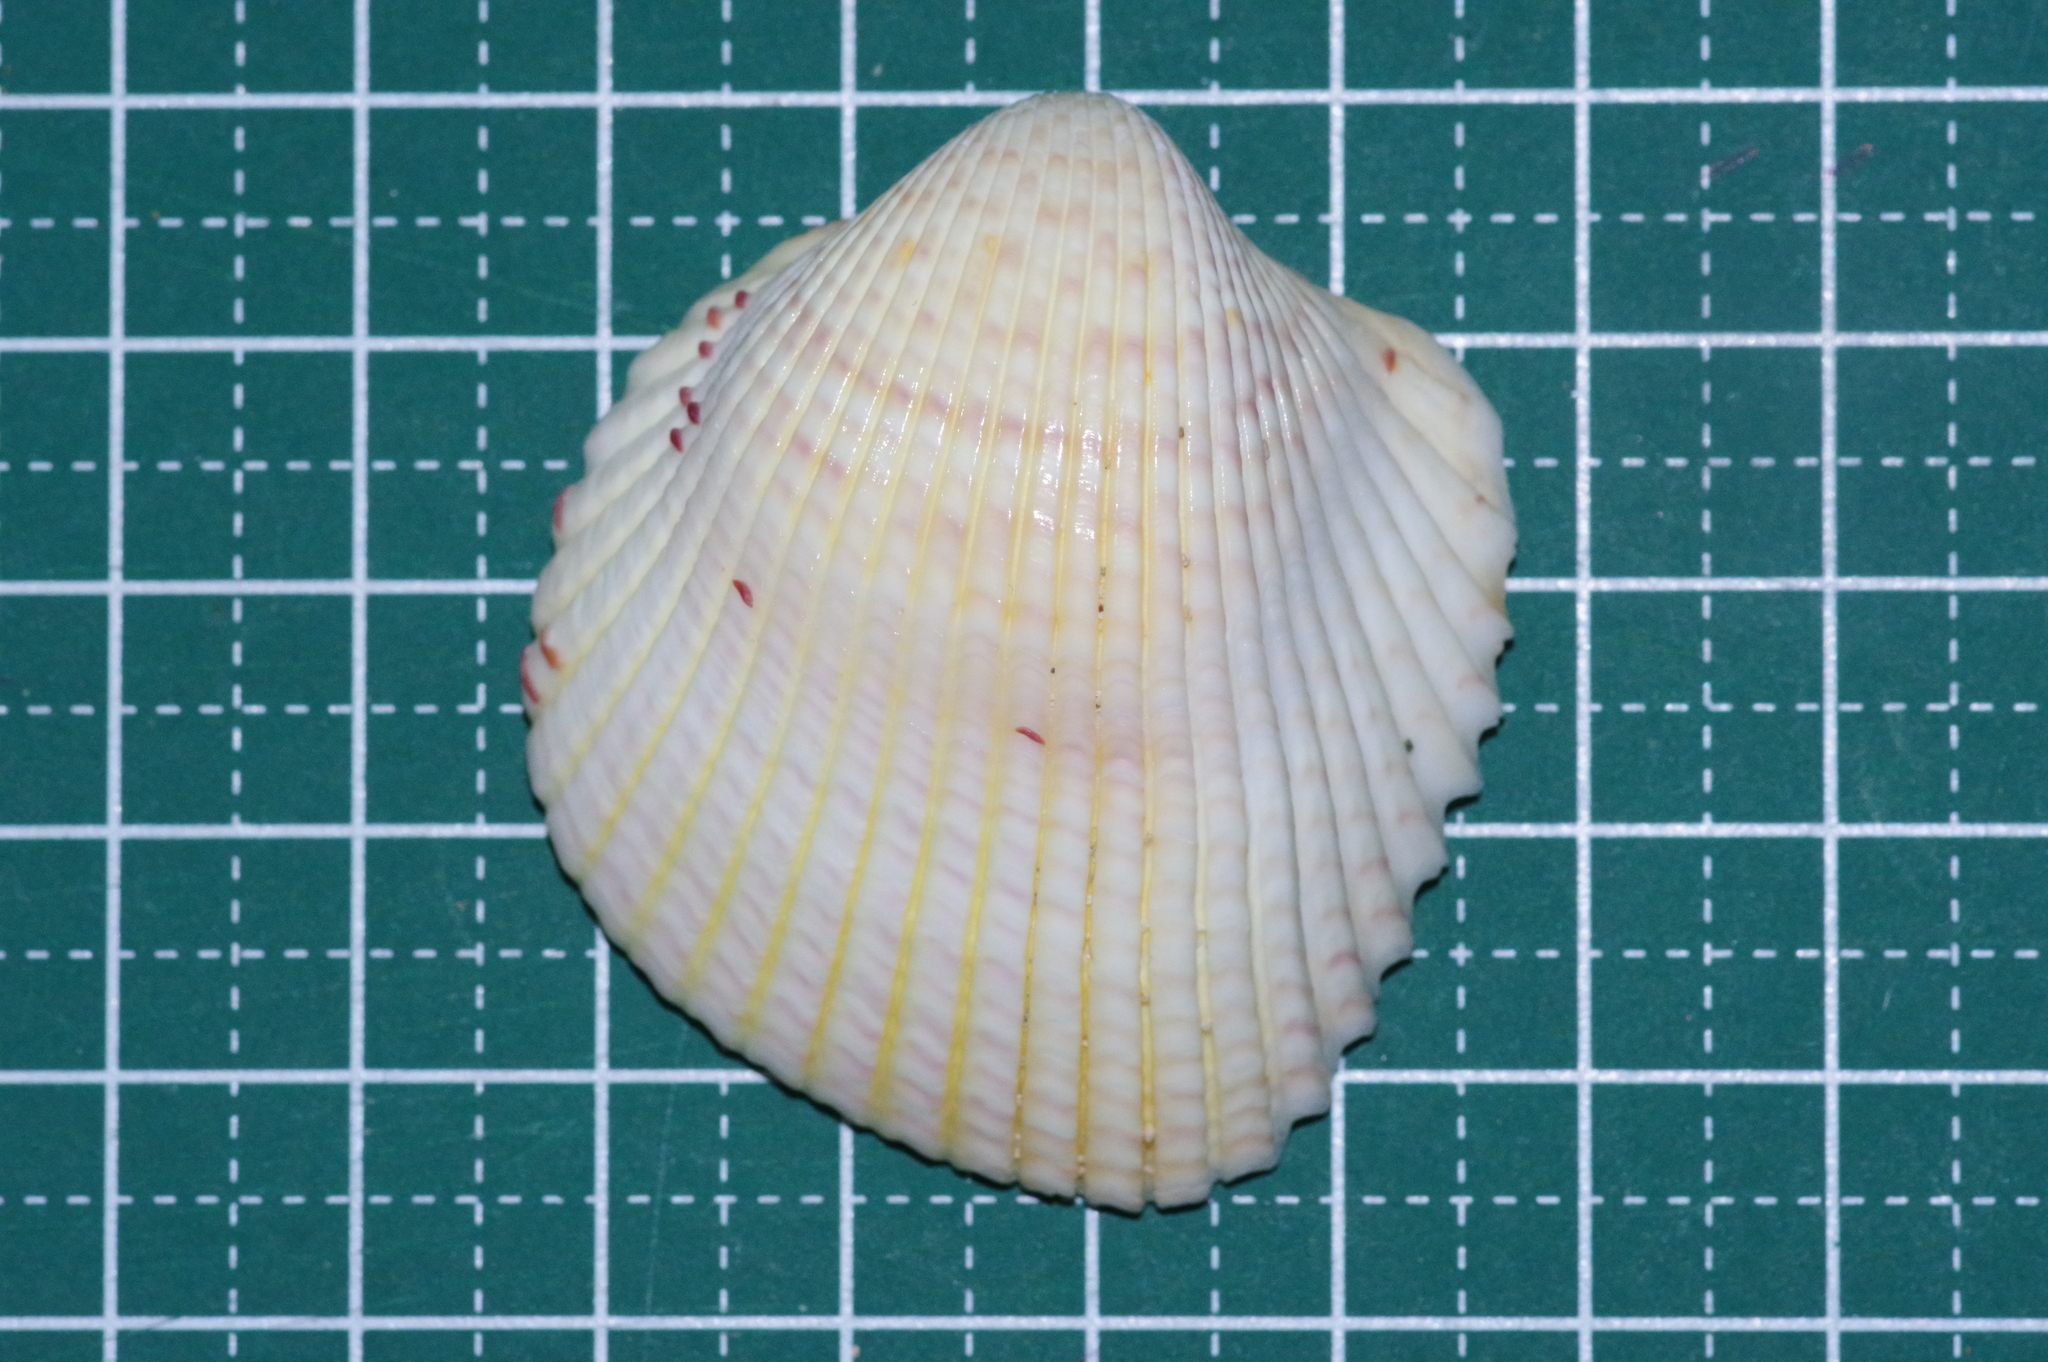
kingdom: Animalia
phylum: Mollusca
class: Bivalvia
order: Cardiida
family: Cardiidae
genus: Fragum
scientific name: Fragum unedo
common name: Strawberry cockle
